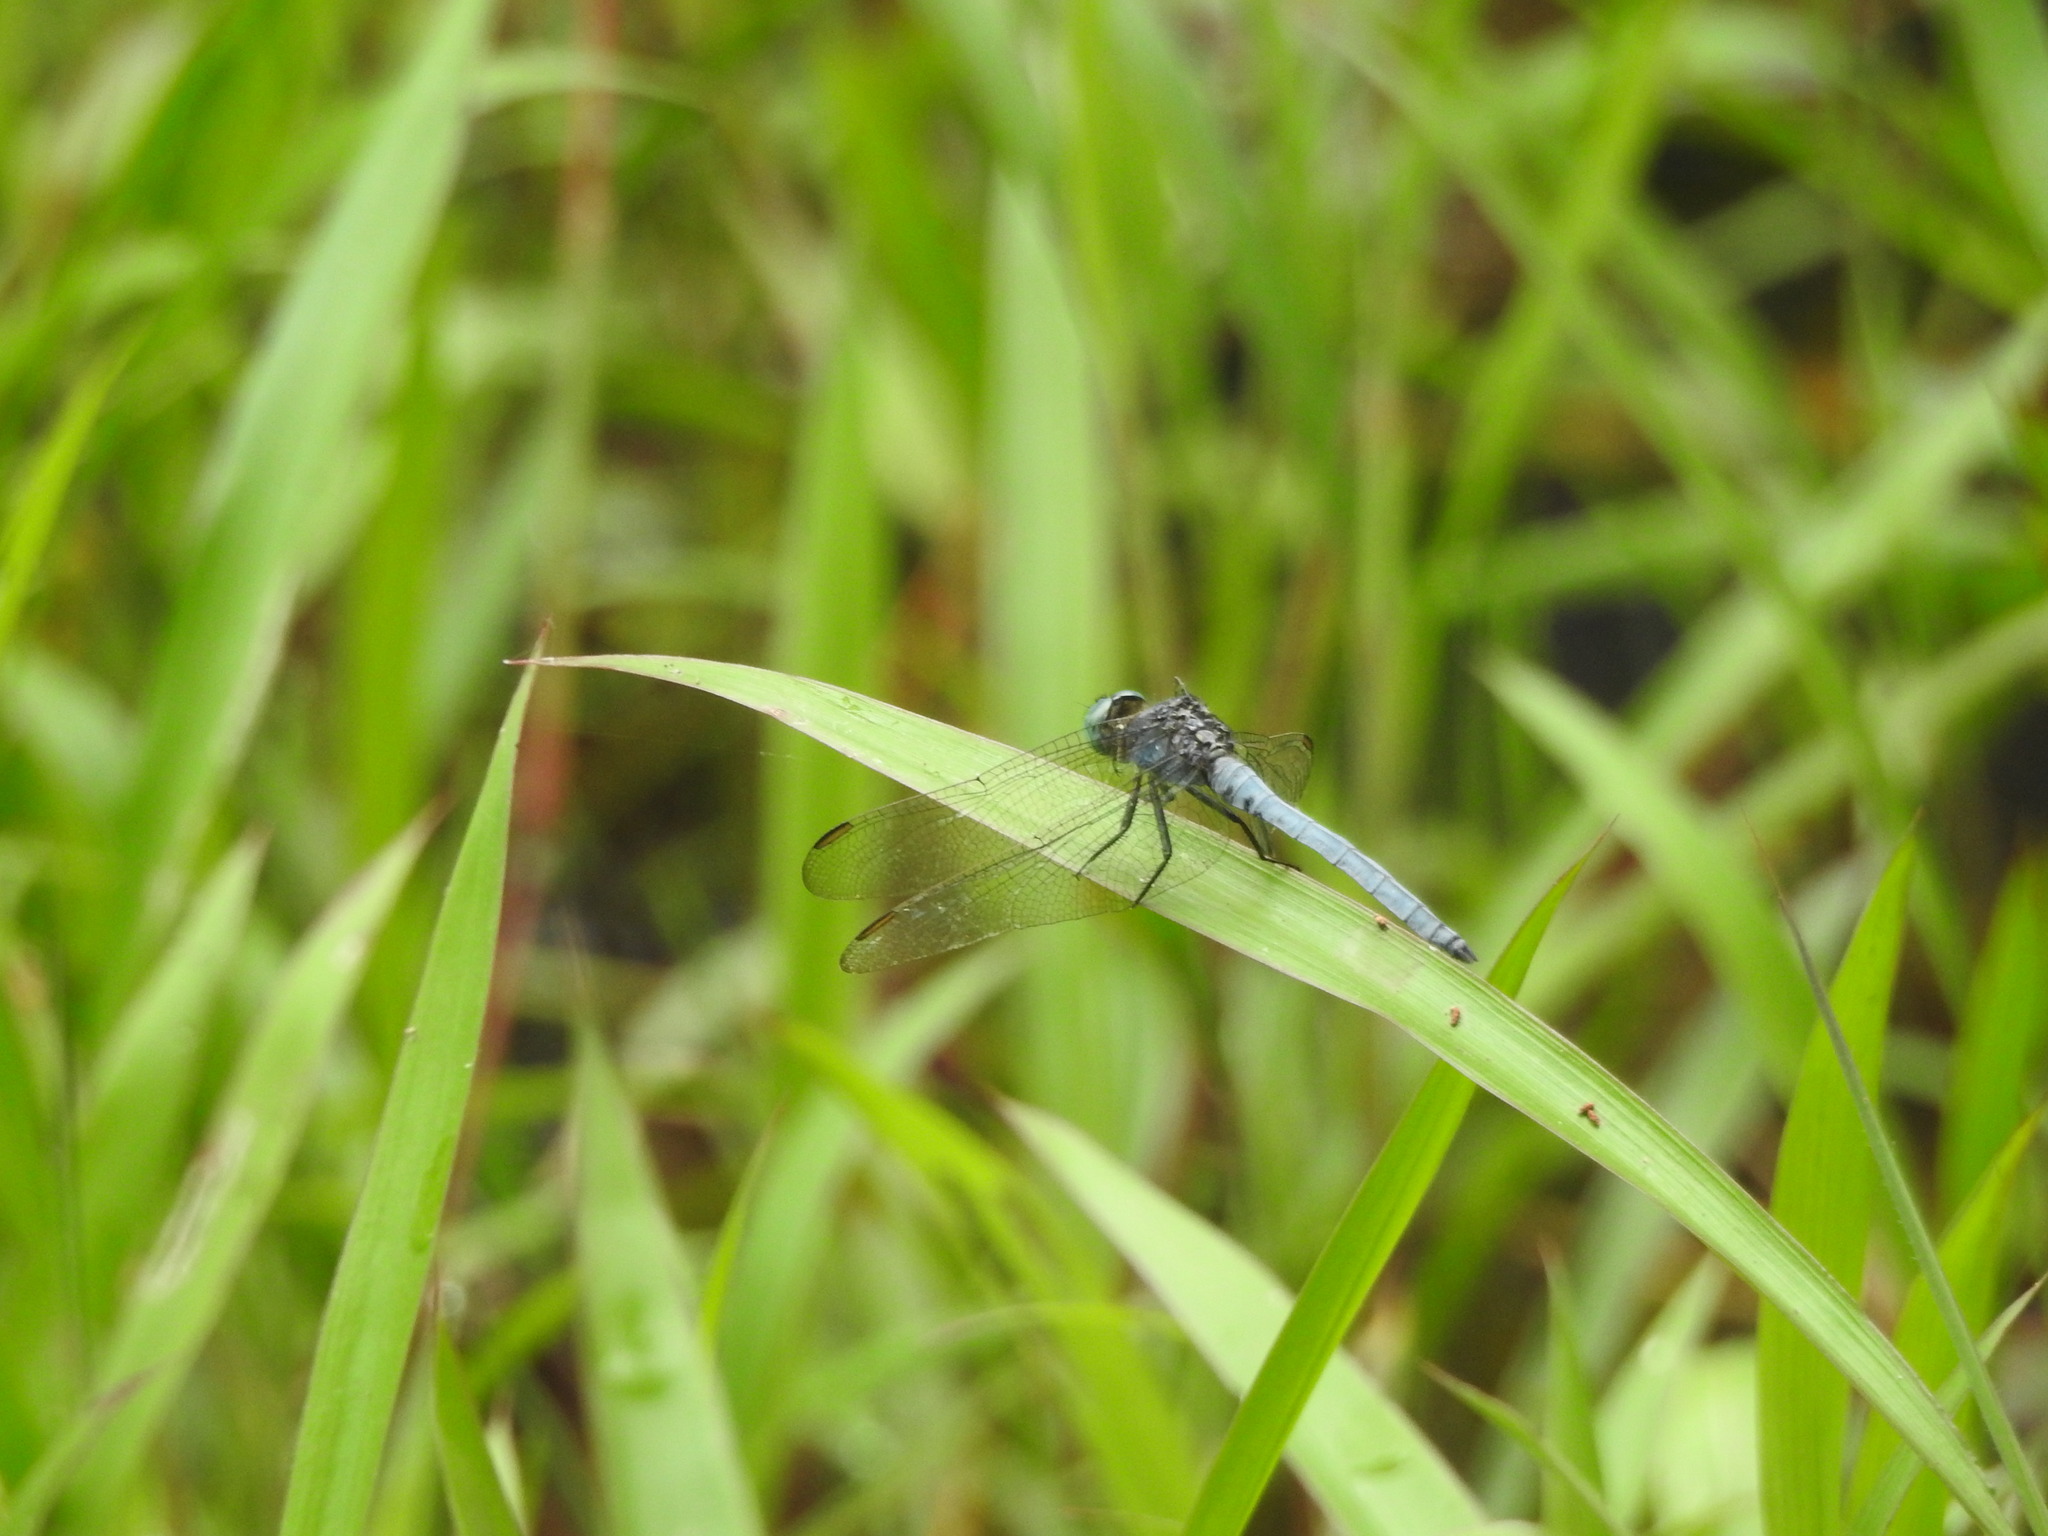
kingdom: Animalia
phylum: Arthropoda
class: Insecta
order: Odonata
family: Libellulidae
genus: Orthetrum
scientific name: Orthetrum luzonicum
